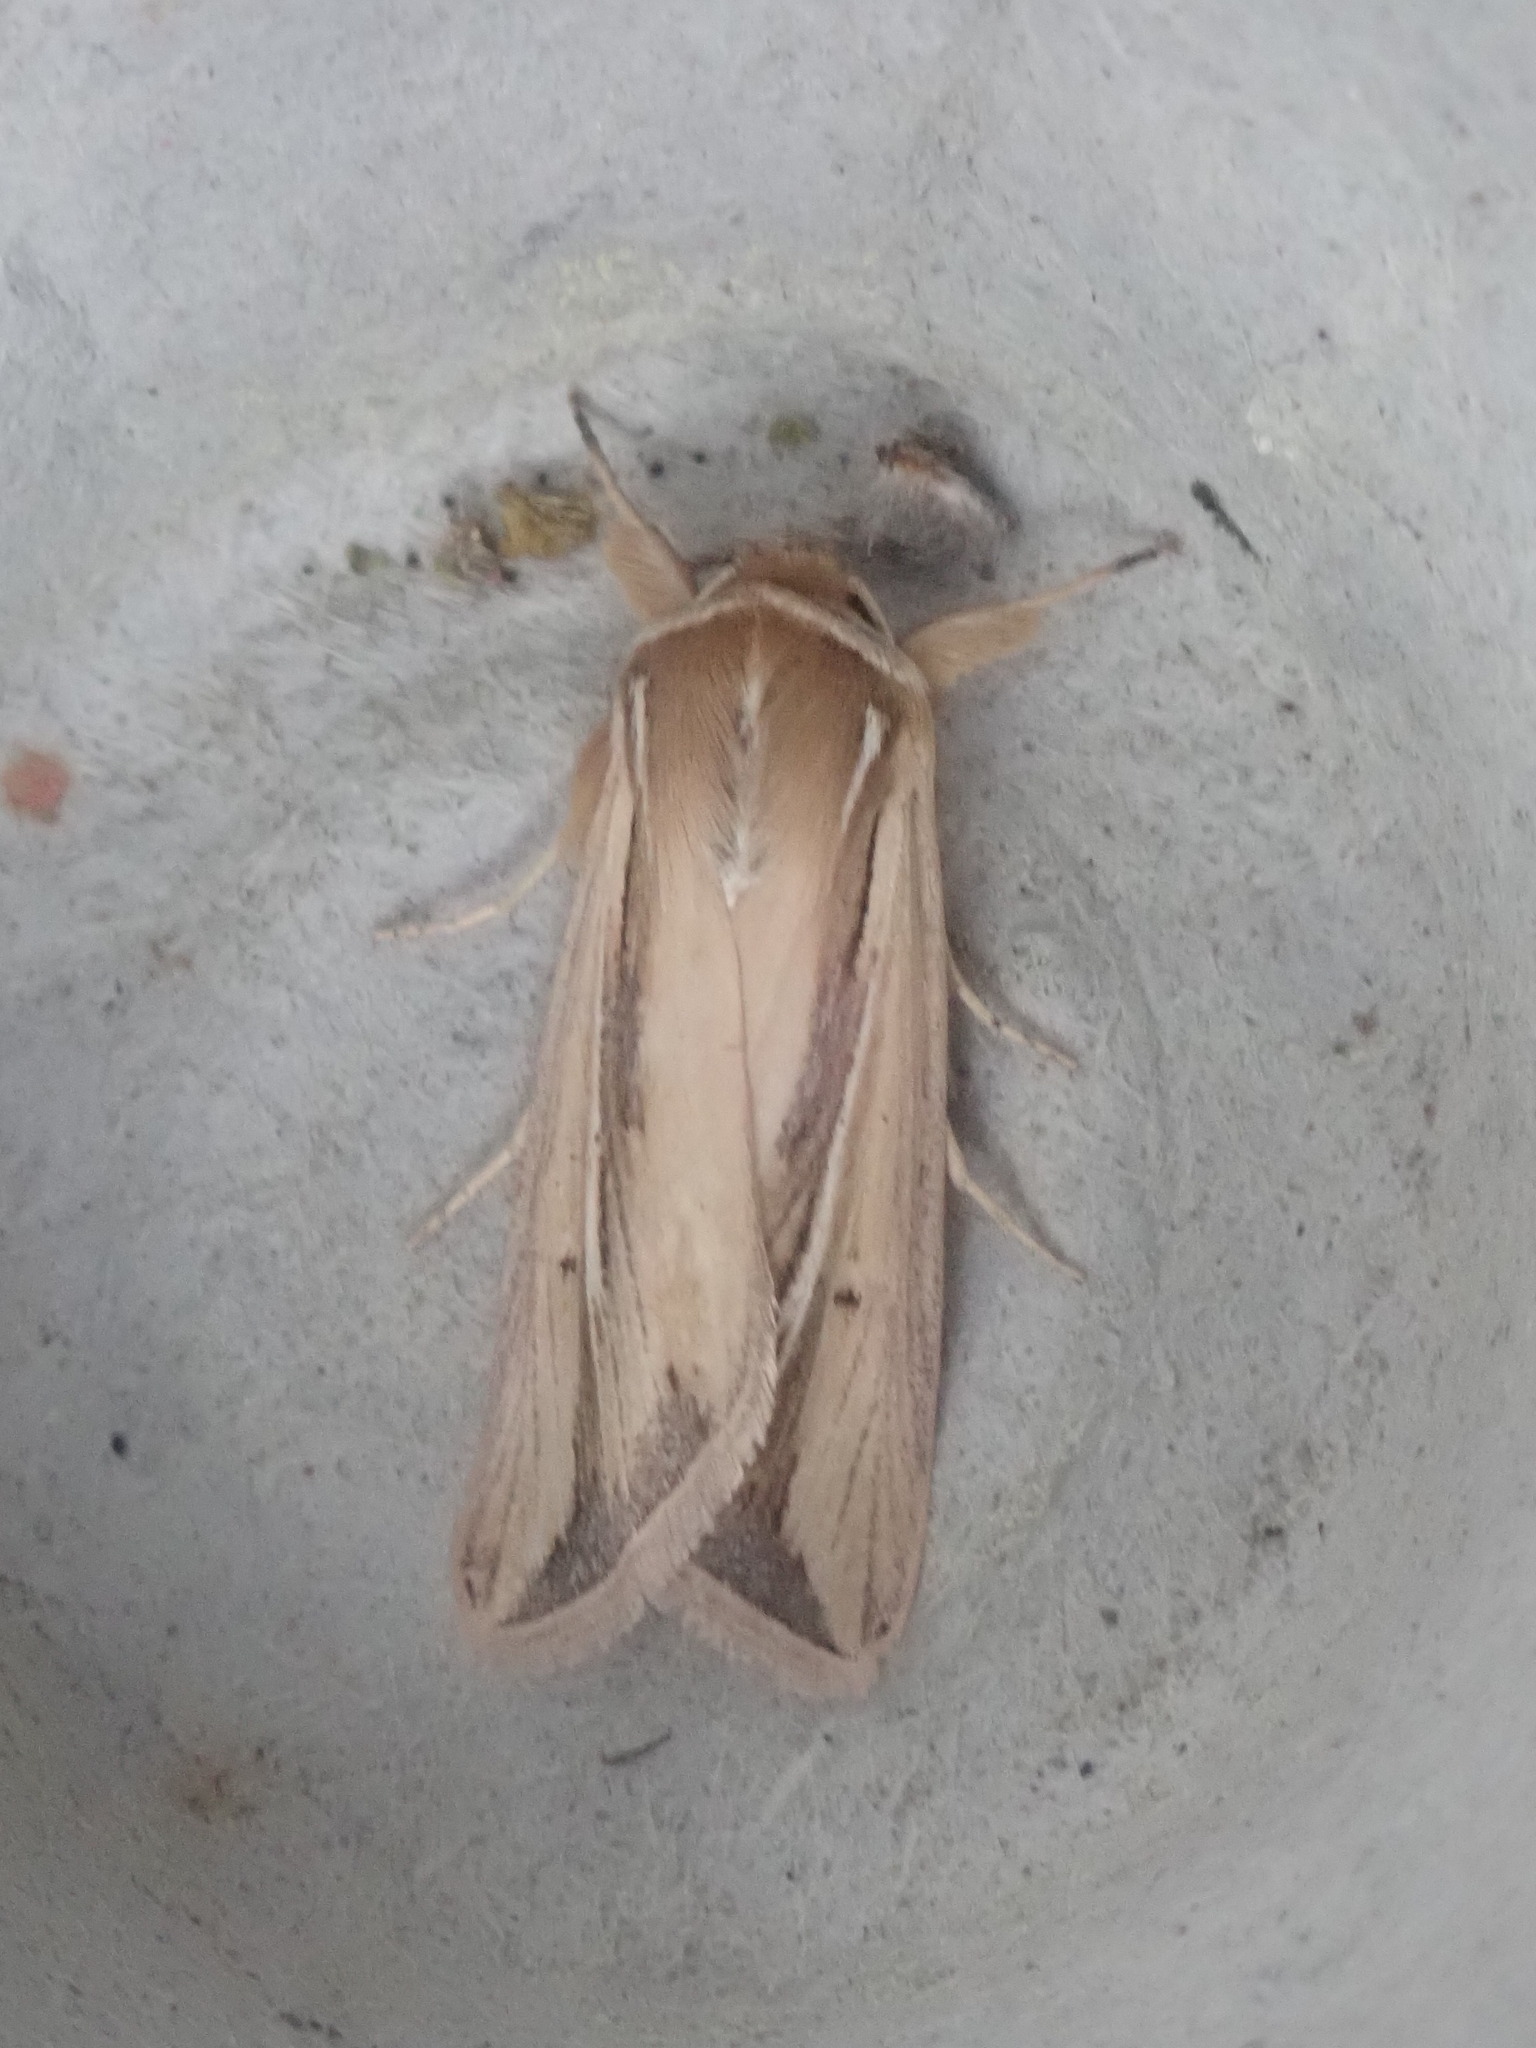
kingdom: Animalia
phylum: Arthropoda
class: Insecta
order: Lepidoptera
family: Noctuidae
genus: Dargida
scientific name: Dargida diffusa
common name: Wheat head armyworm
